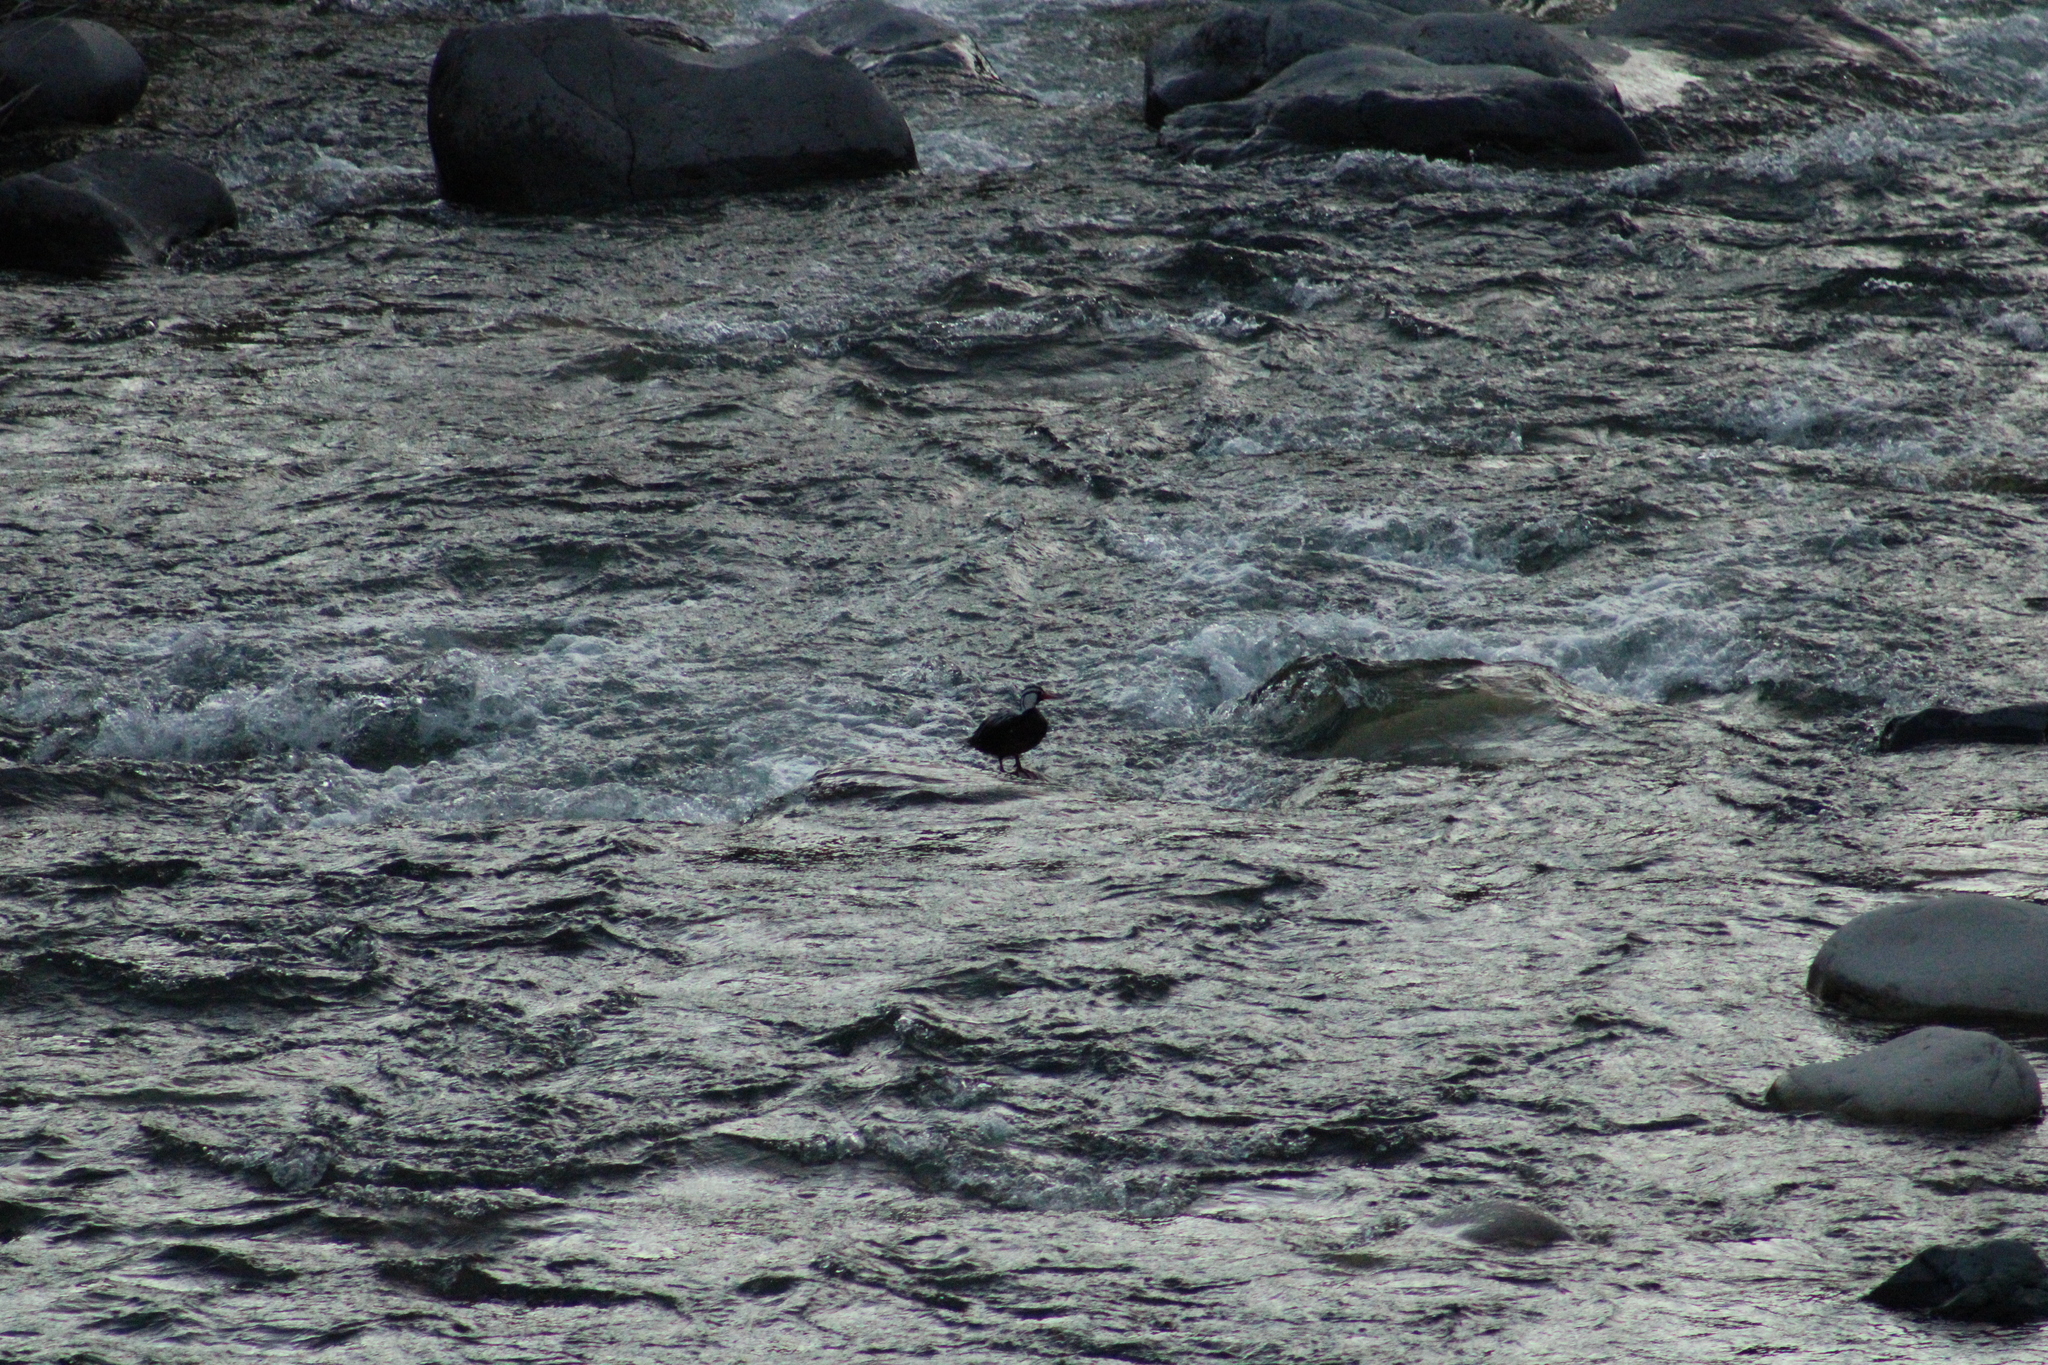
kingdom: Animalia
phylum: Chordata
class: Aves
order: Anseriformes
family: Anatidae
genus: Merganetta
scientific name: Merganetta armata
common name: Torrent duck
